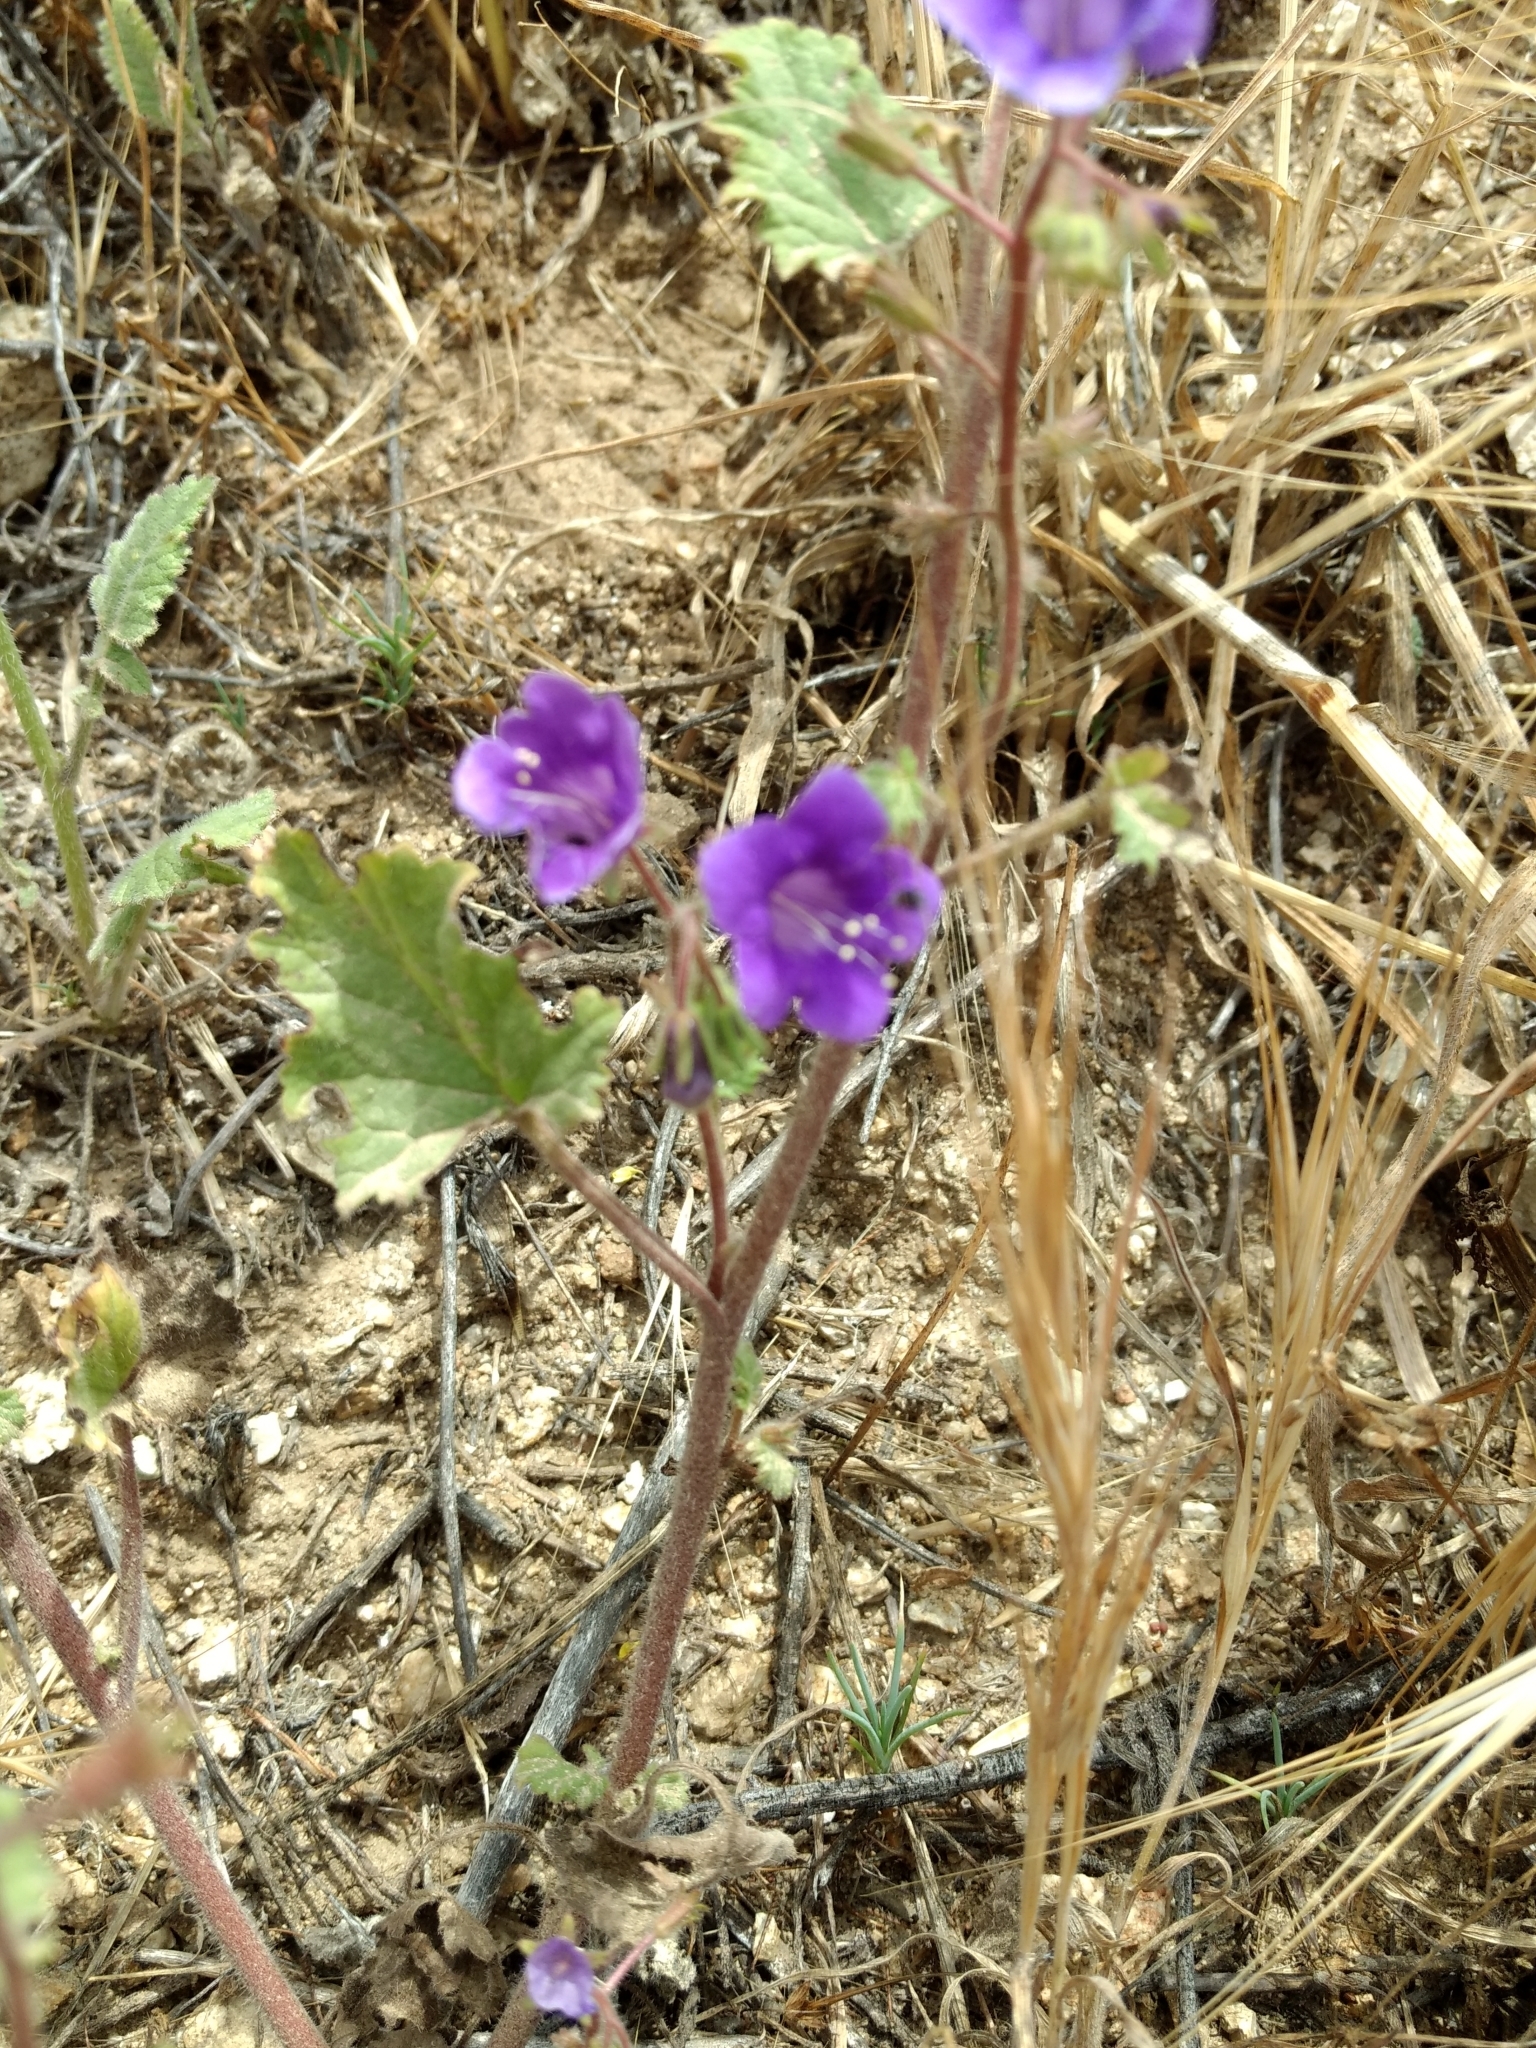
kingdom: Plantae
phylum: Tracheophyta
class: Magnoliopsida
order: Boraginales
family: Hydrophyllaceae
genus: Phacelia
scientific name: Phacelia minor
